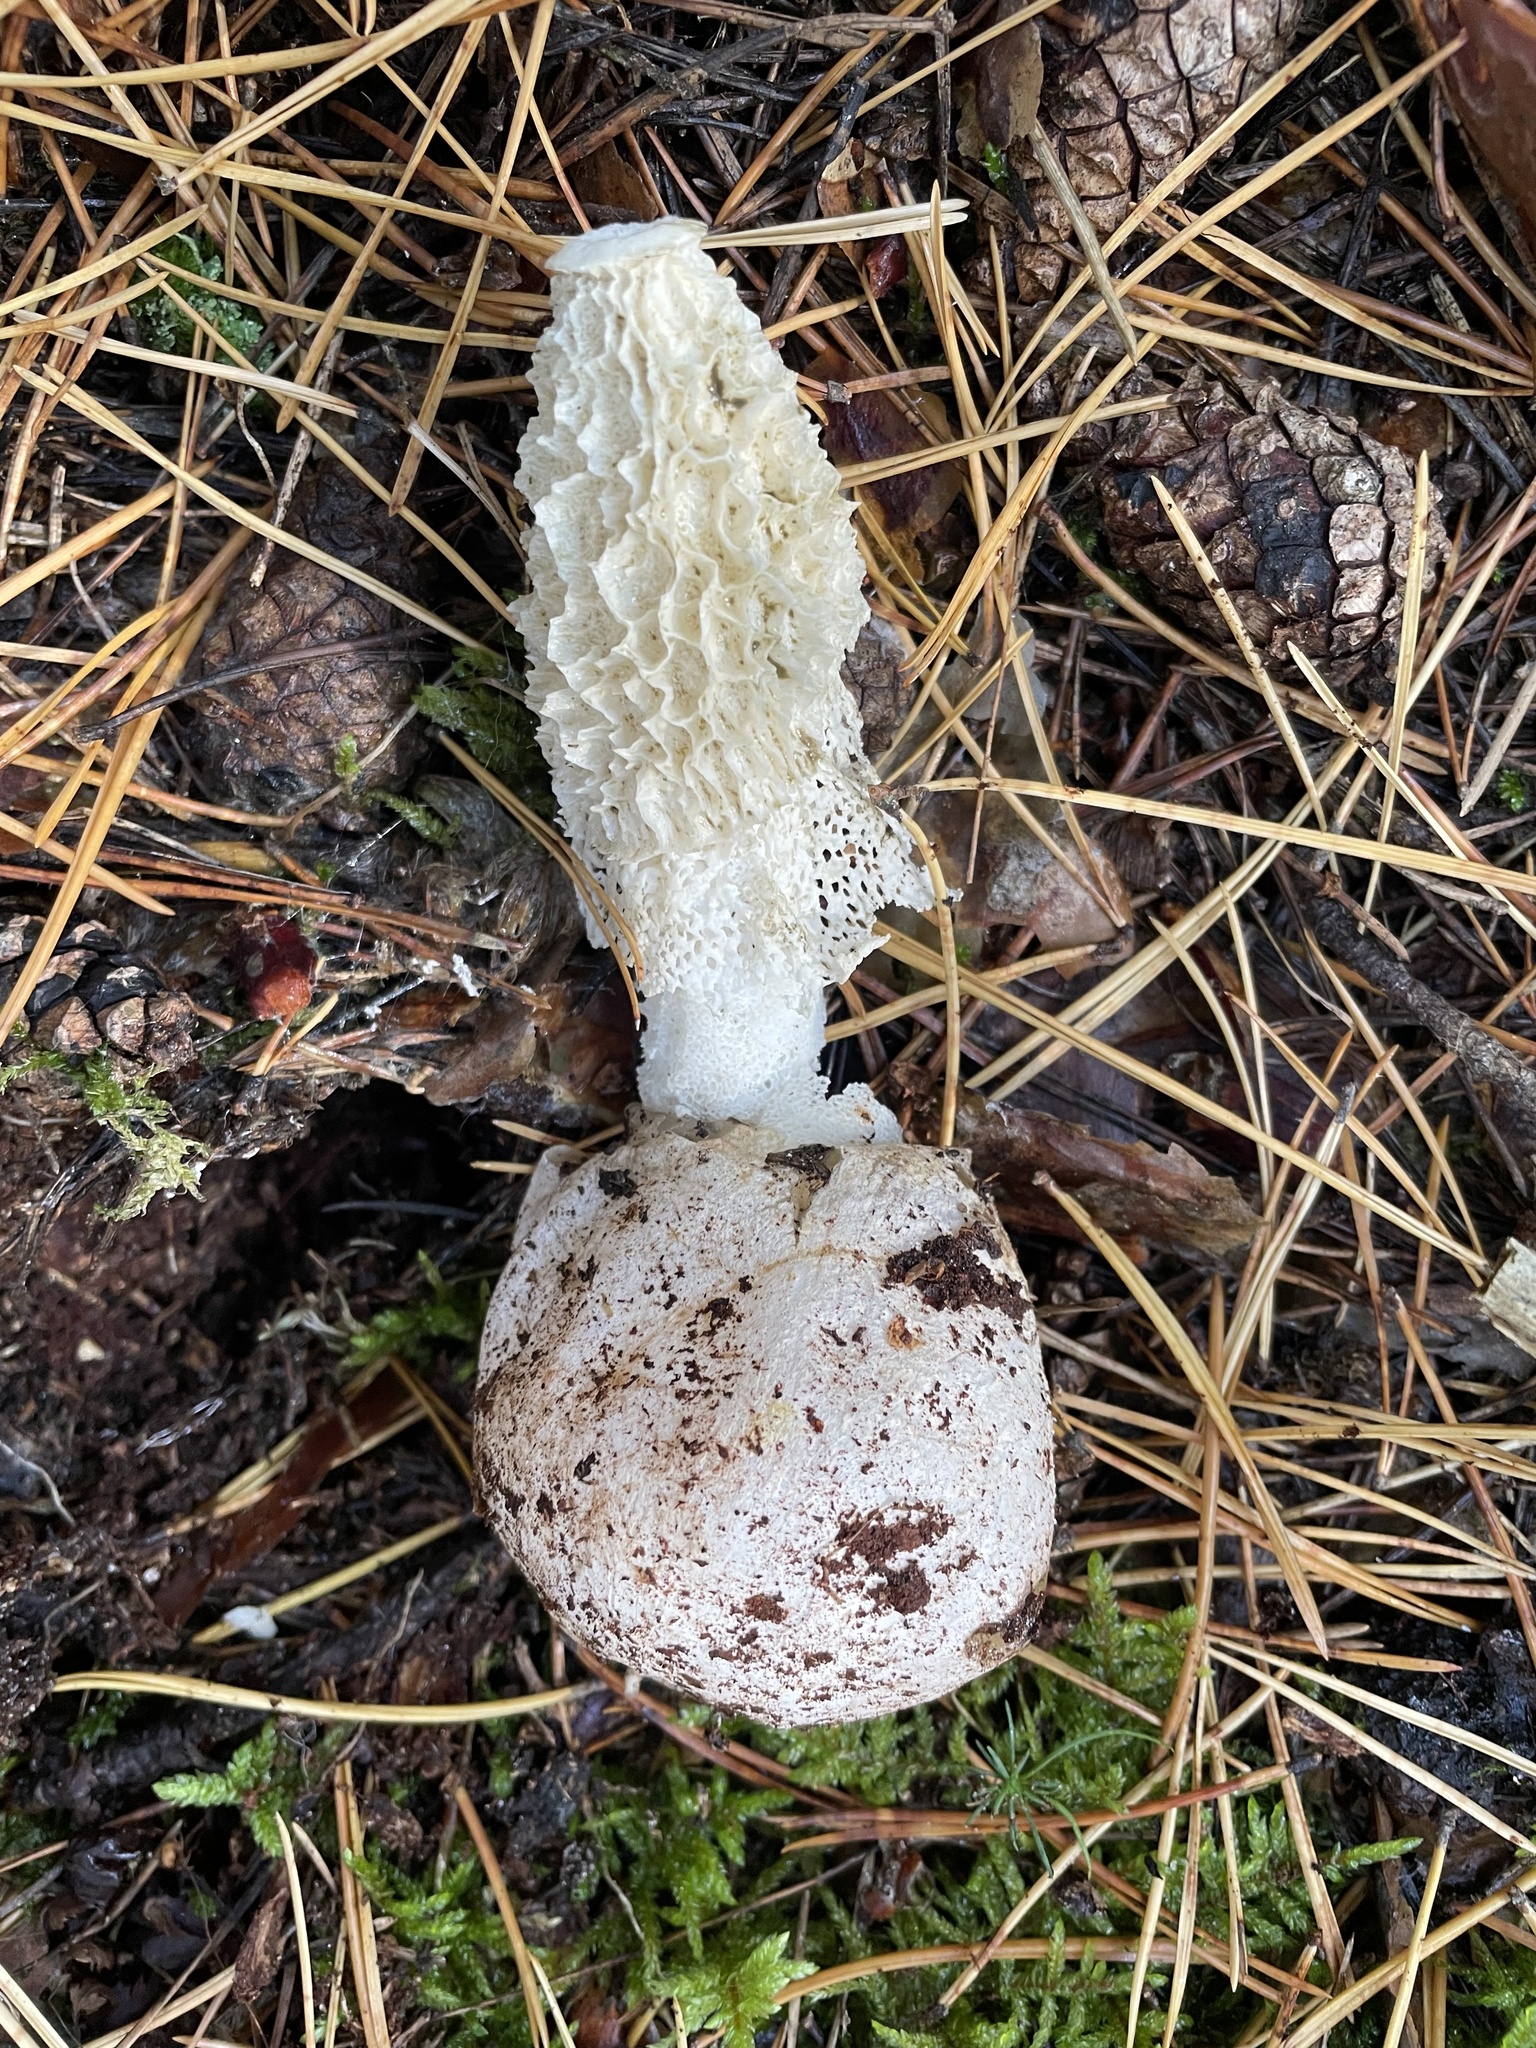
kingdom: Fungi
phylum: Basidiomycota
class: Agaricomycetes
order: Phallales
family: Phallaceae
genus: Phallus
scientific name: Phallus indusiatus
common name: Bridal veil stinkhorn
